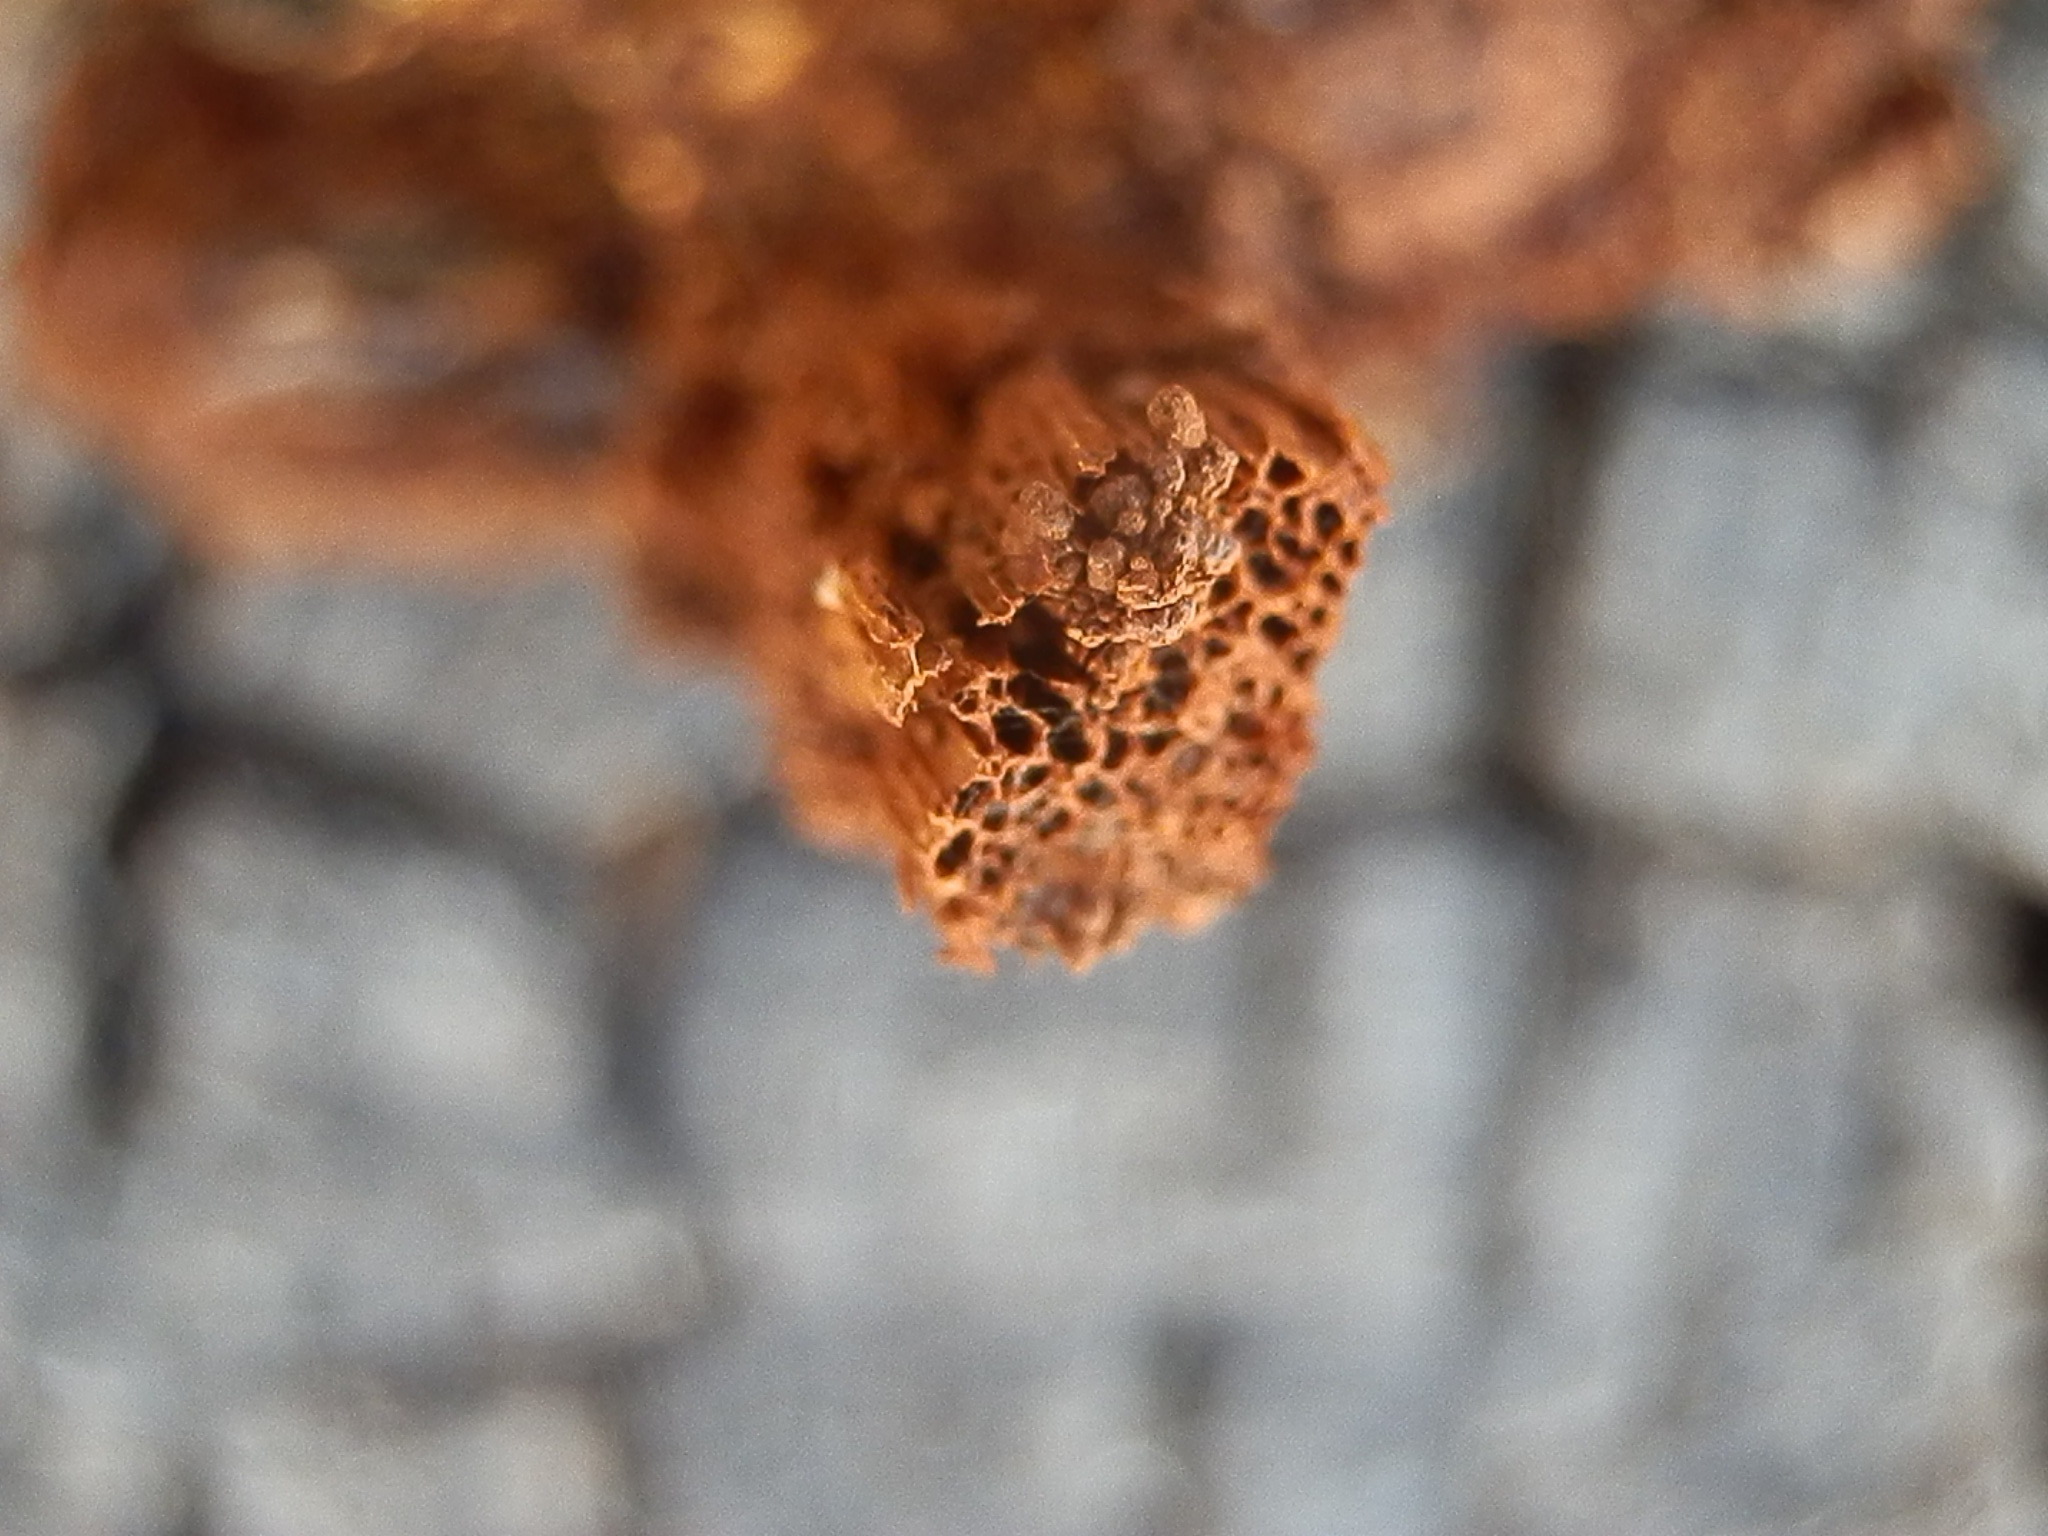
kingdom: Fungi
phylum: Basidiomycota
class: Agaricomycetes
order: Hymenochaetales
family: Hymenochaetaceae
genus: Inocutis
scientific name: Inocutis dryophila
